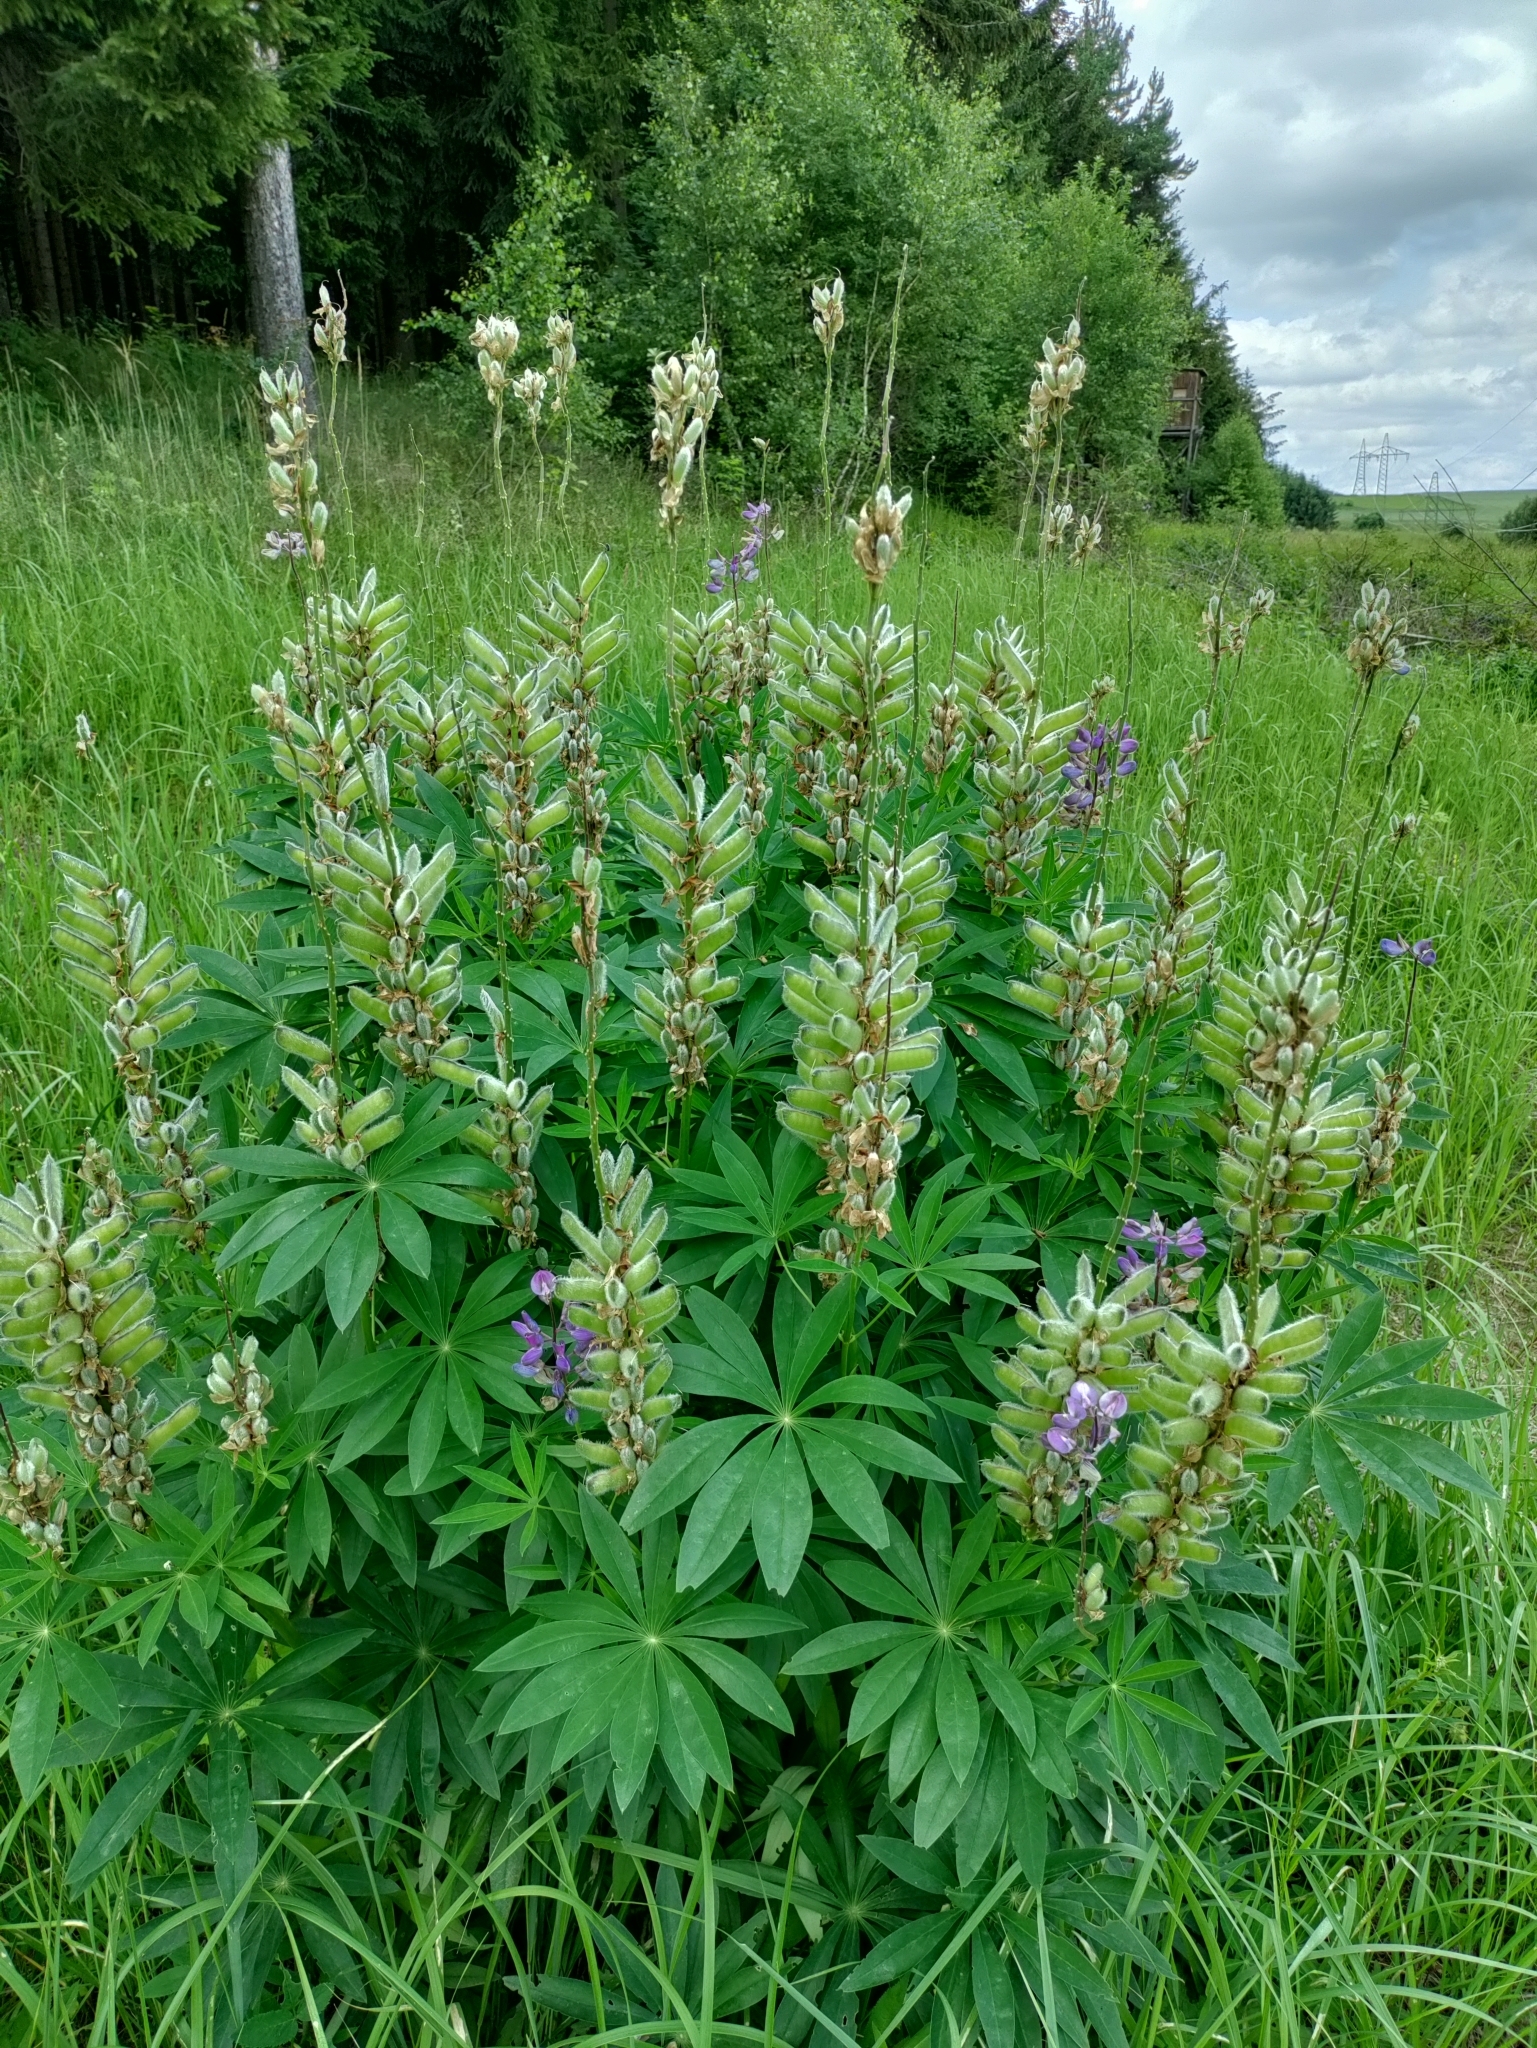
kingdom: Plantae
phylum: Tracheophyta
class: Magnoliopsida
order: Fabales
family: Fabaceae
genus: Lupinus
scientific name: Lupinus polyphyllus
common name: Garden lupin
